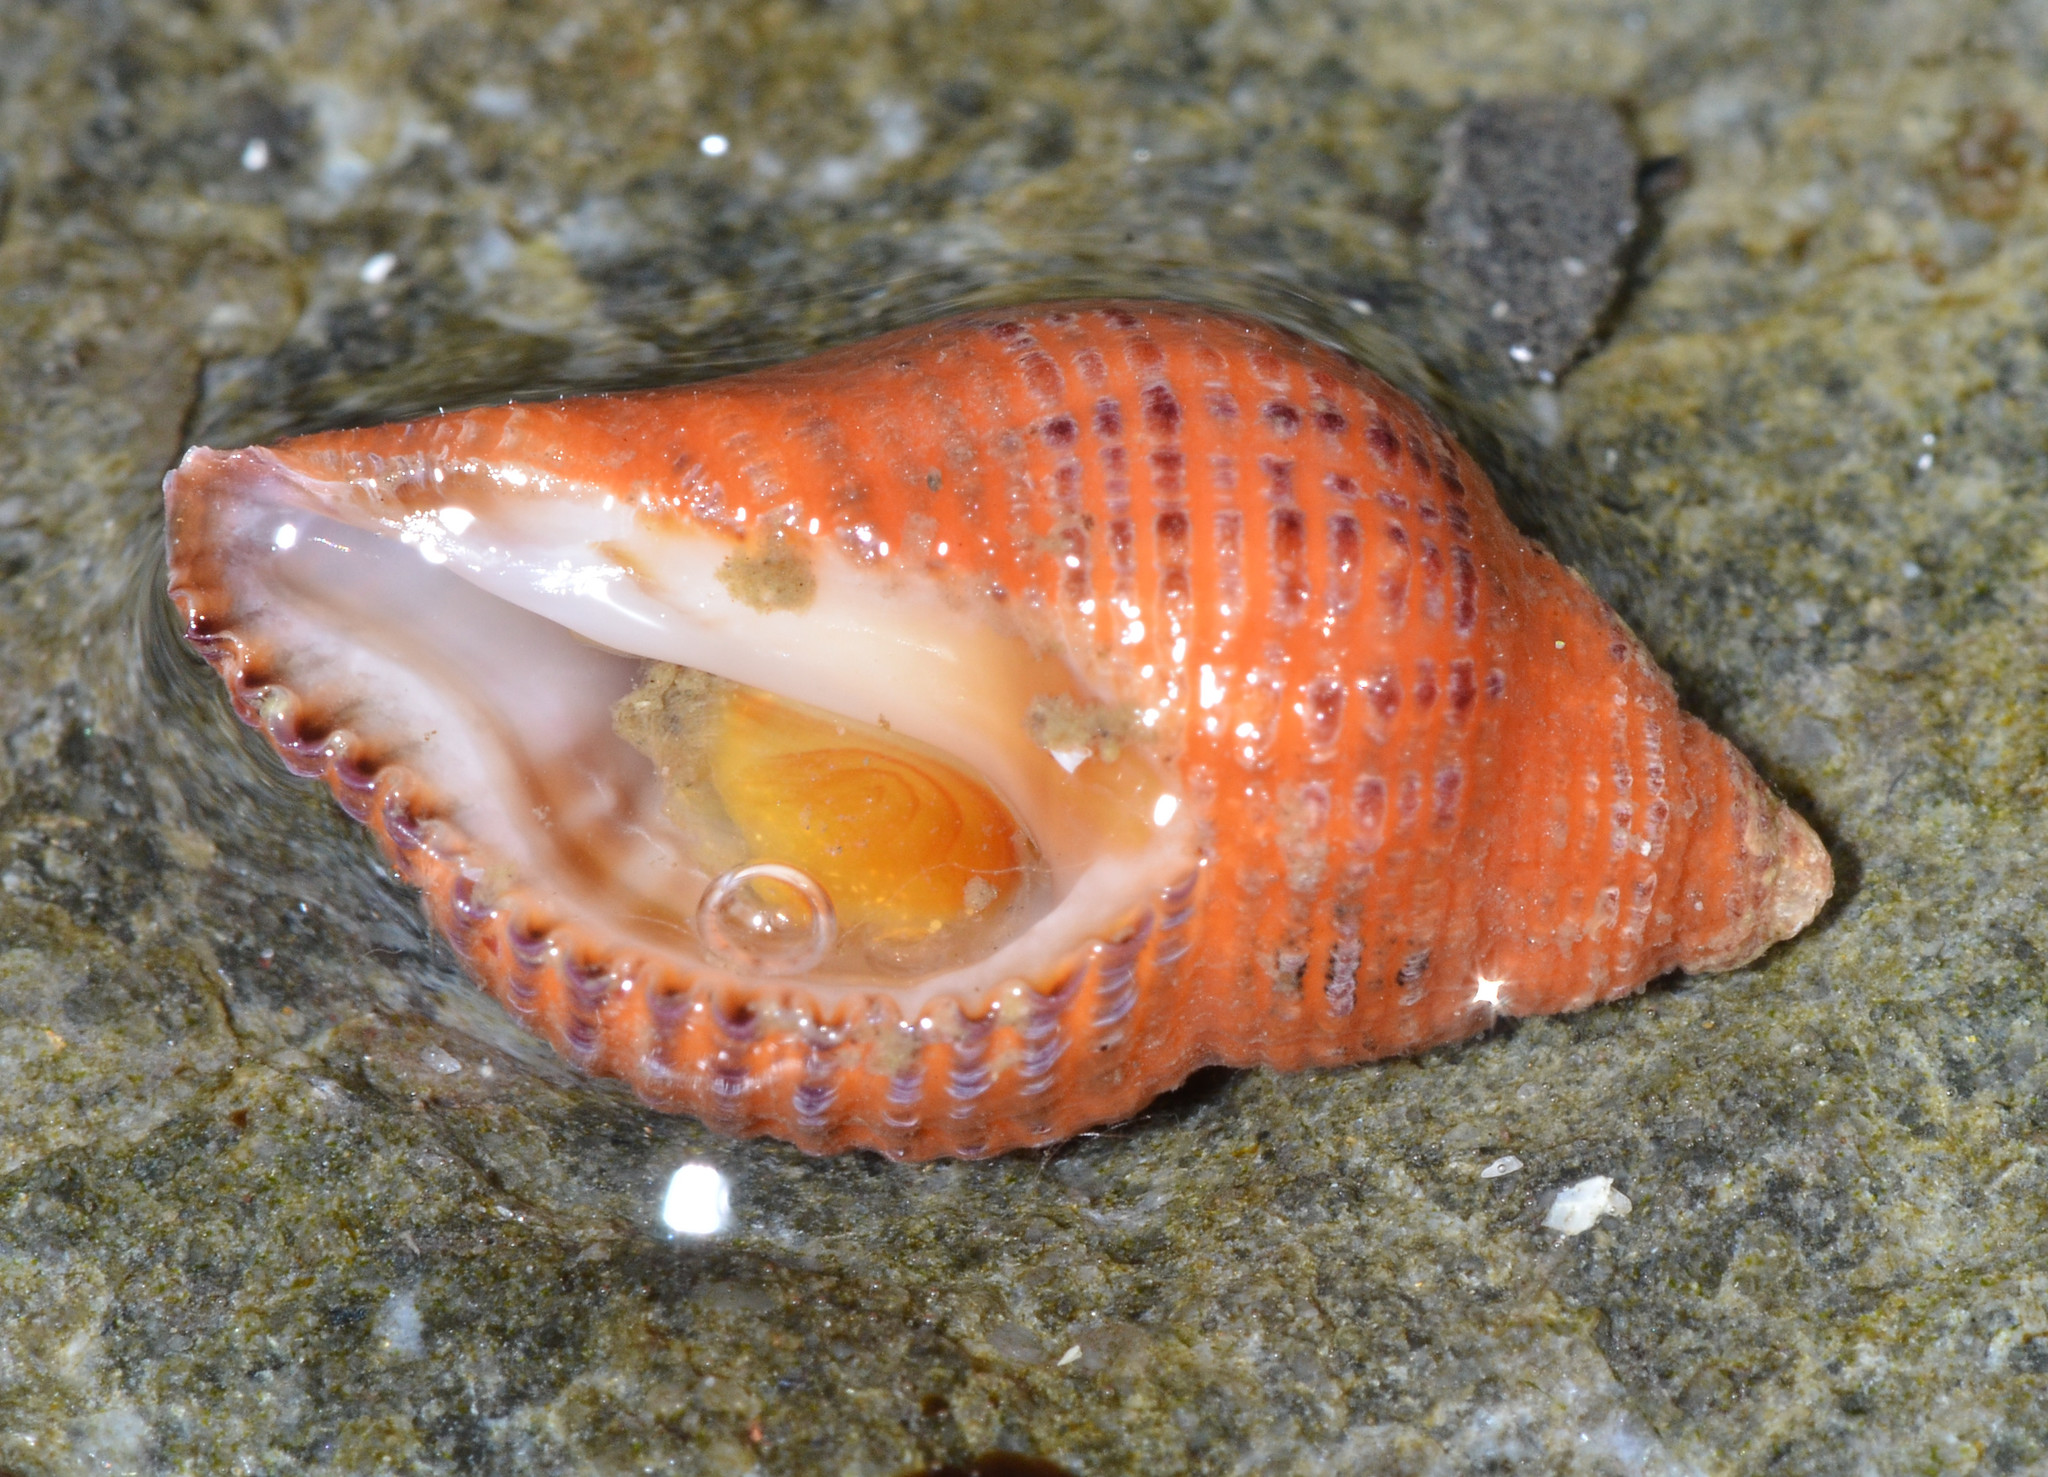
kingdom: Animalia
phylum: Mollusca
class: Gastropoda
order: Neogastropoda
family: Muricidae
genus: Paciocinebrina
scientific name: Paciocinebrina lurida
